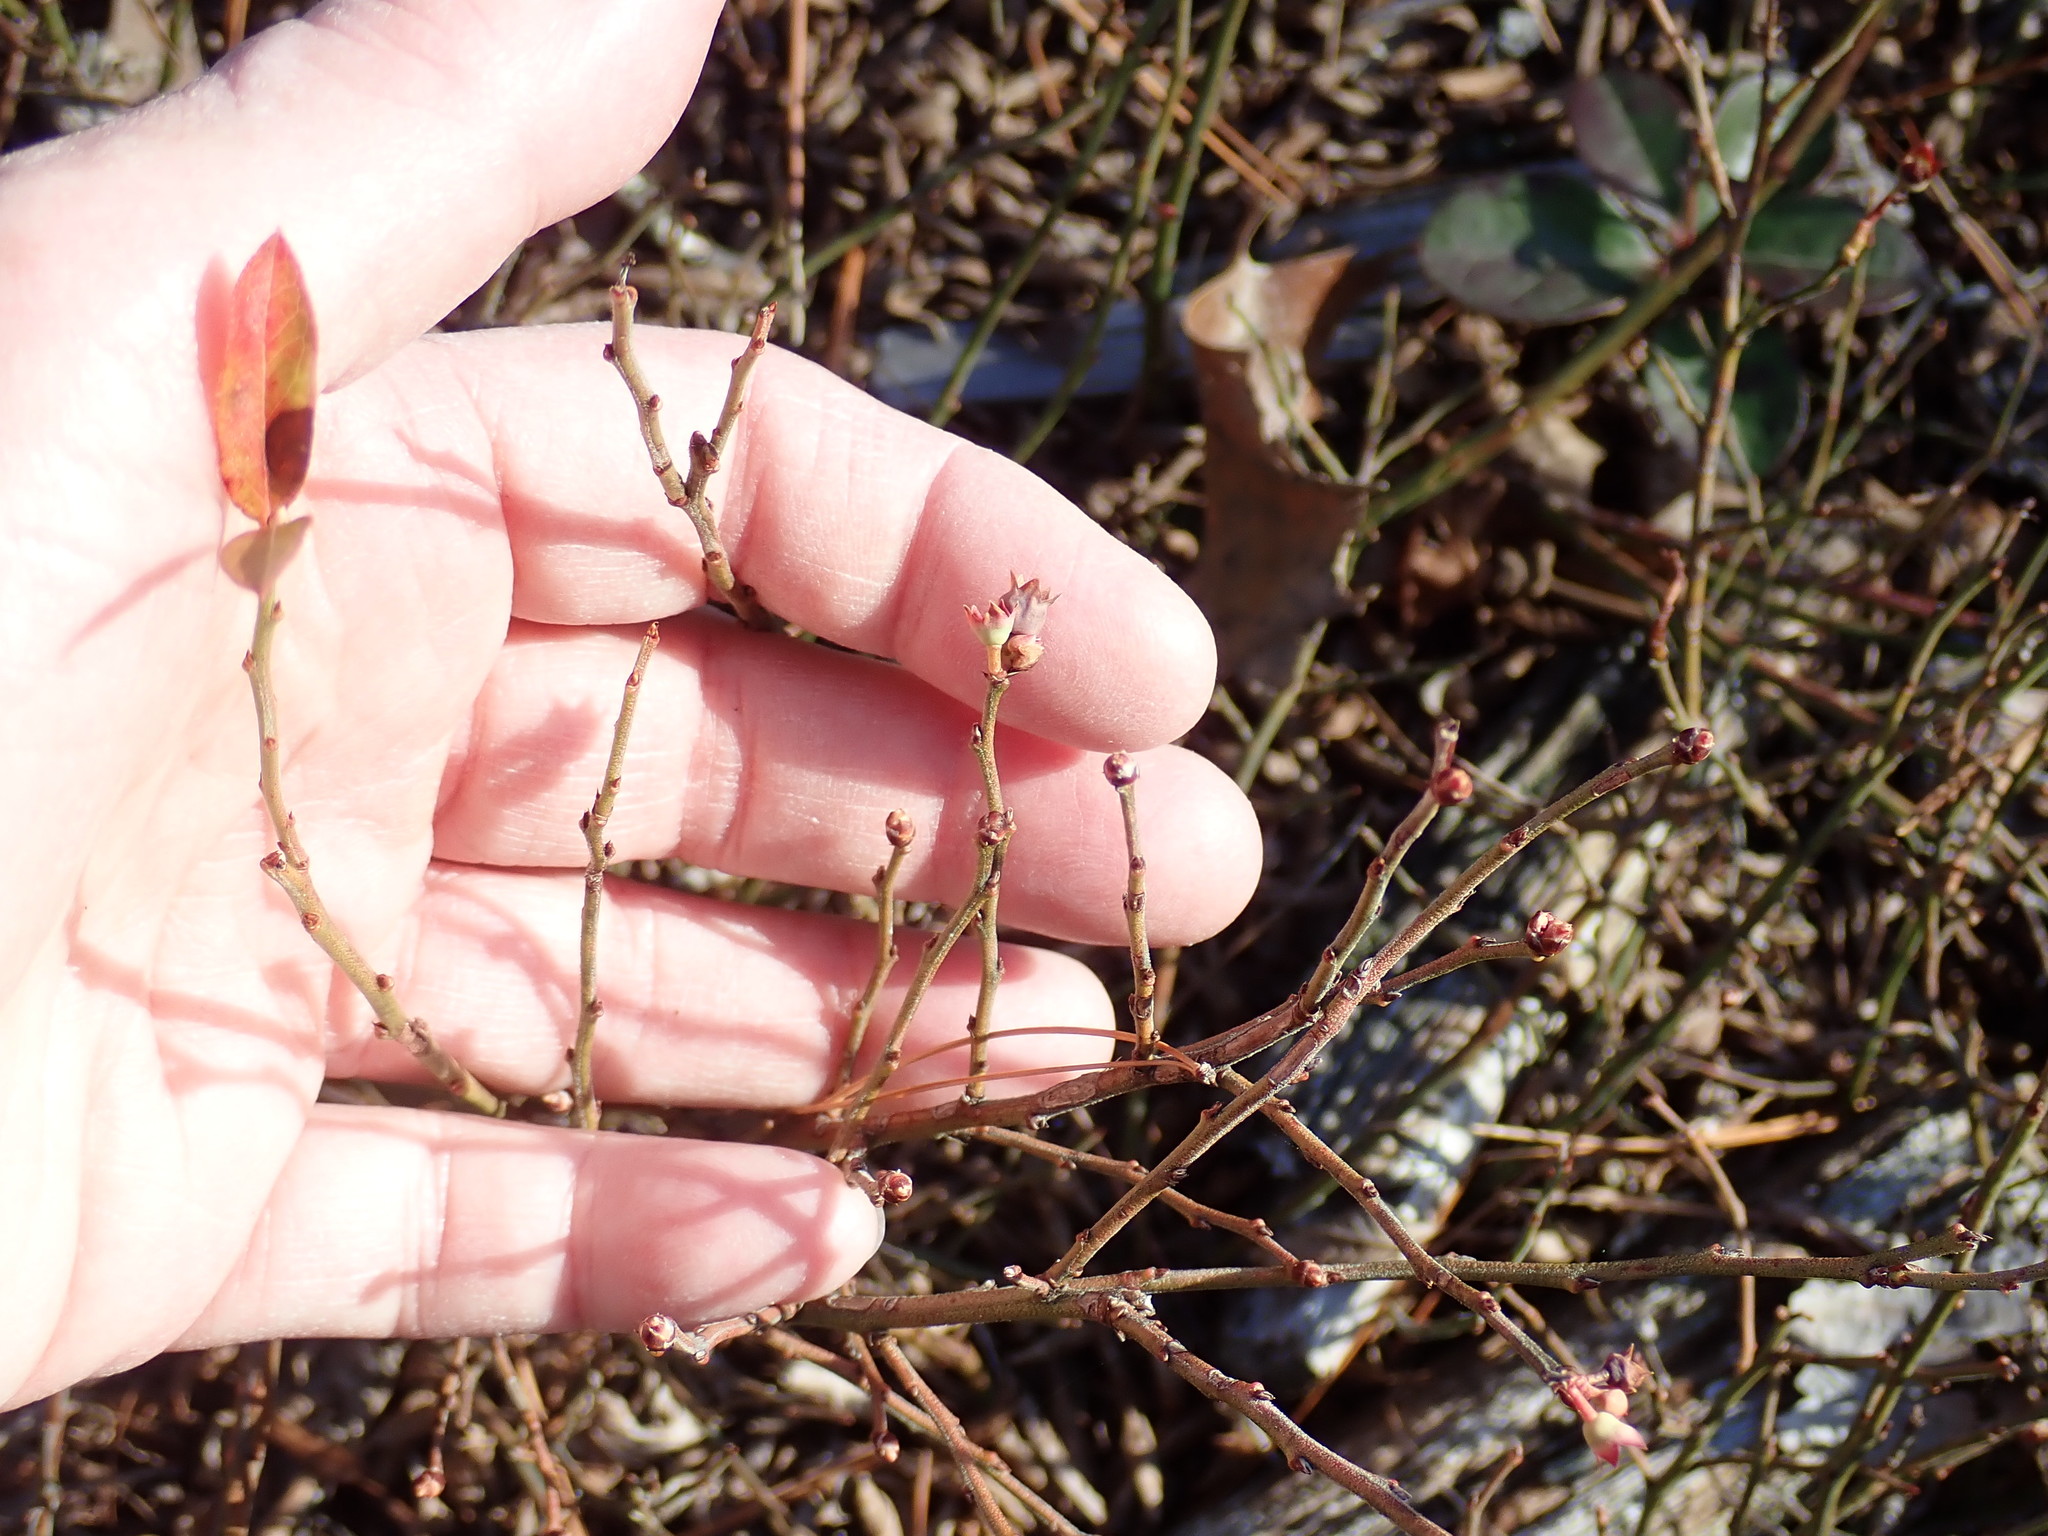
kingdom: Plantae
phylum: Tracheophyta
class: Magnoliopsida
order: Ericales
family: Ericaceae
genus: Vaccinium
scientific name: Vaccinium angustifolium
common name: Early lowbush blueberry
